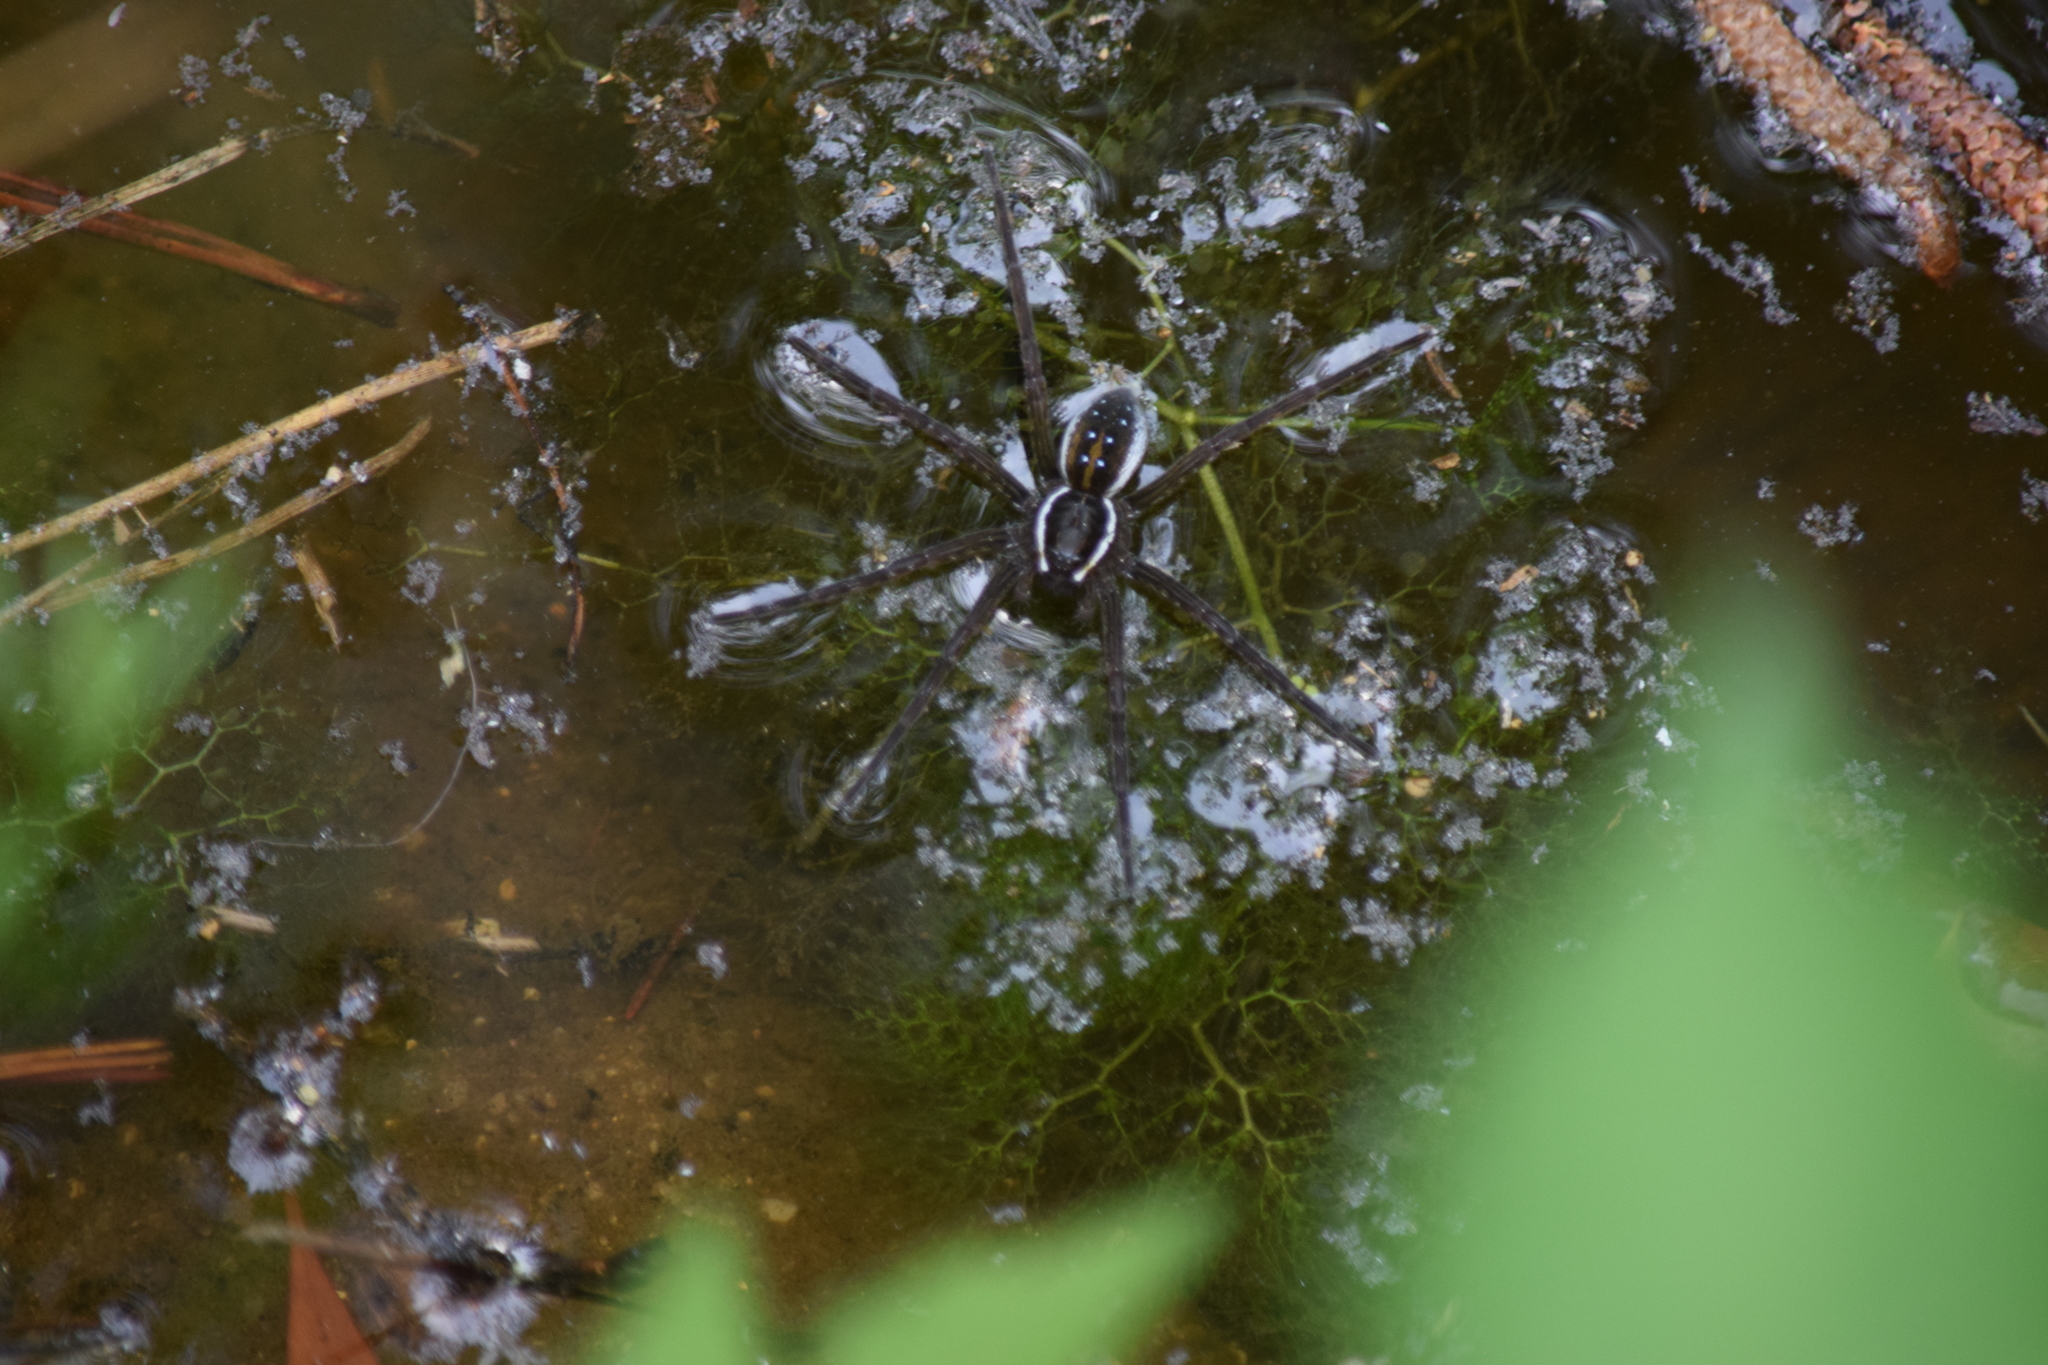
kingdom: Animalia
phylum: Arthropoda
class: Arachnida
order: Araneae
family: Pisauridae
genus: Dolomedes
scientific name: Dolomedes triton
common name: Six-spotted fishing spider
